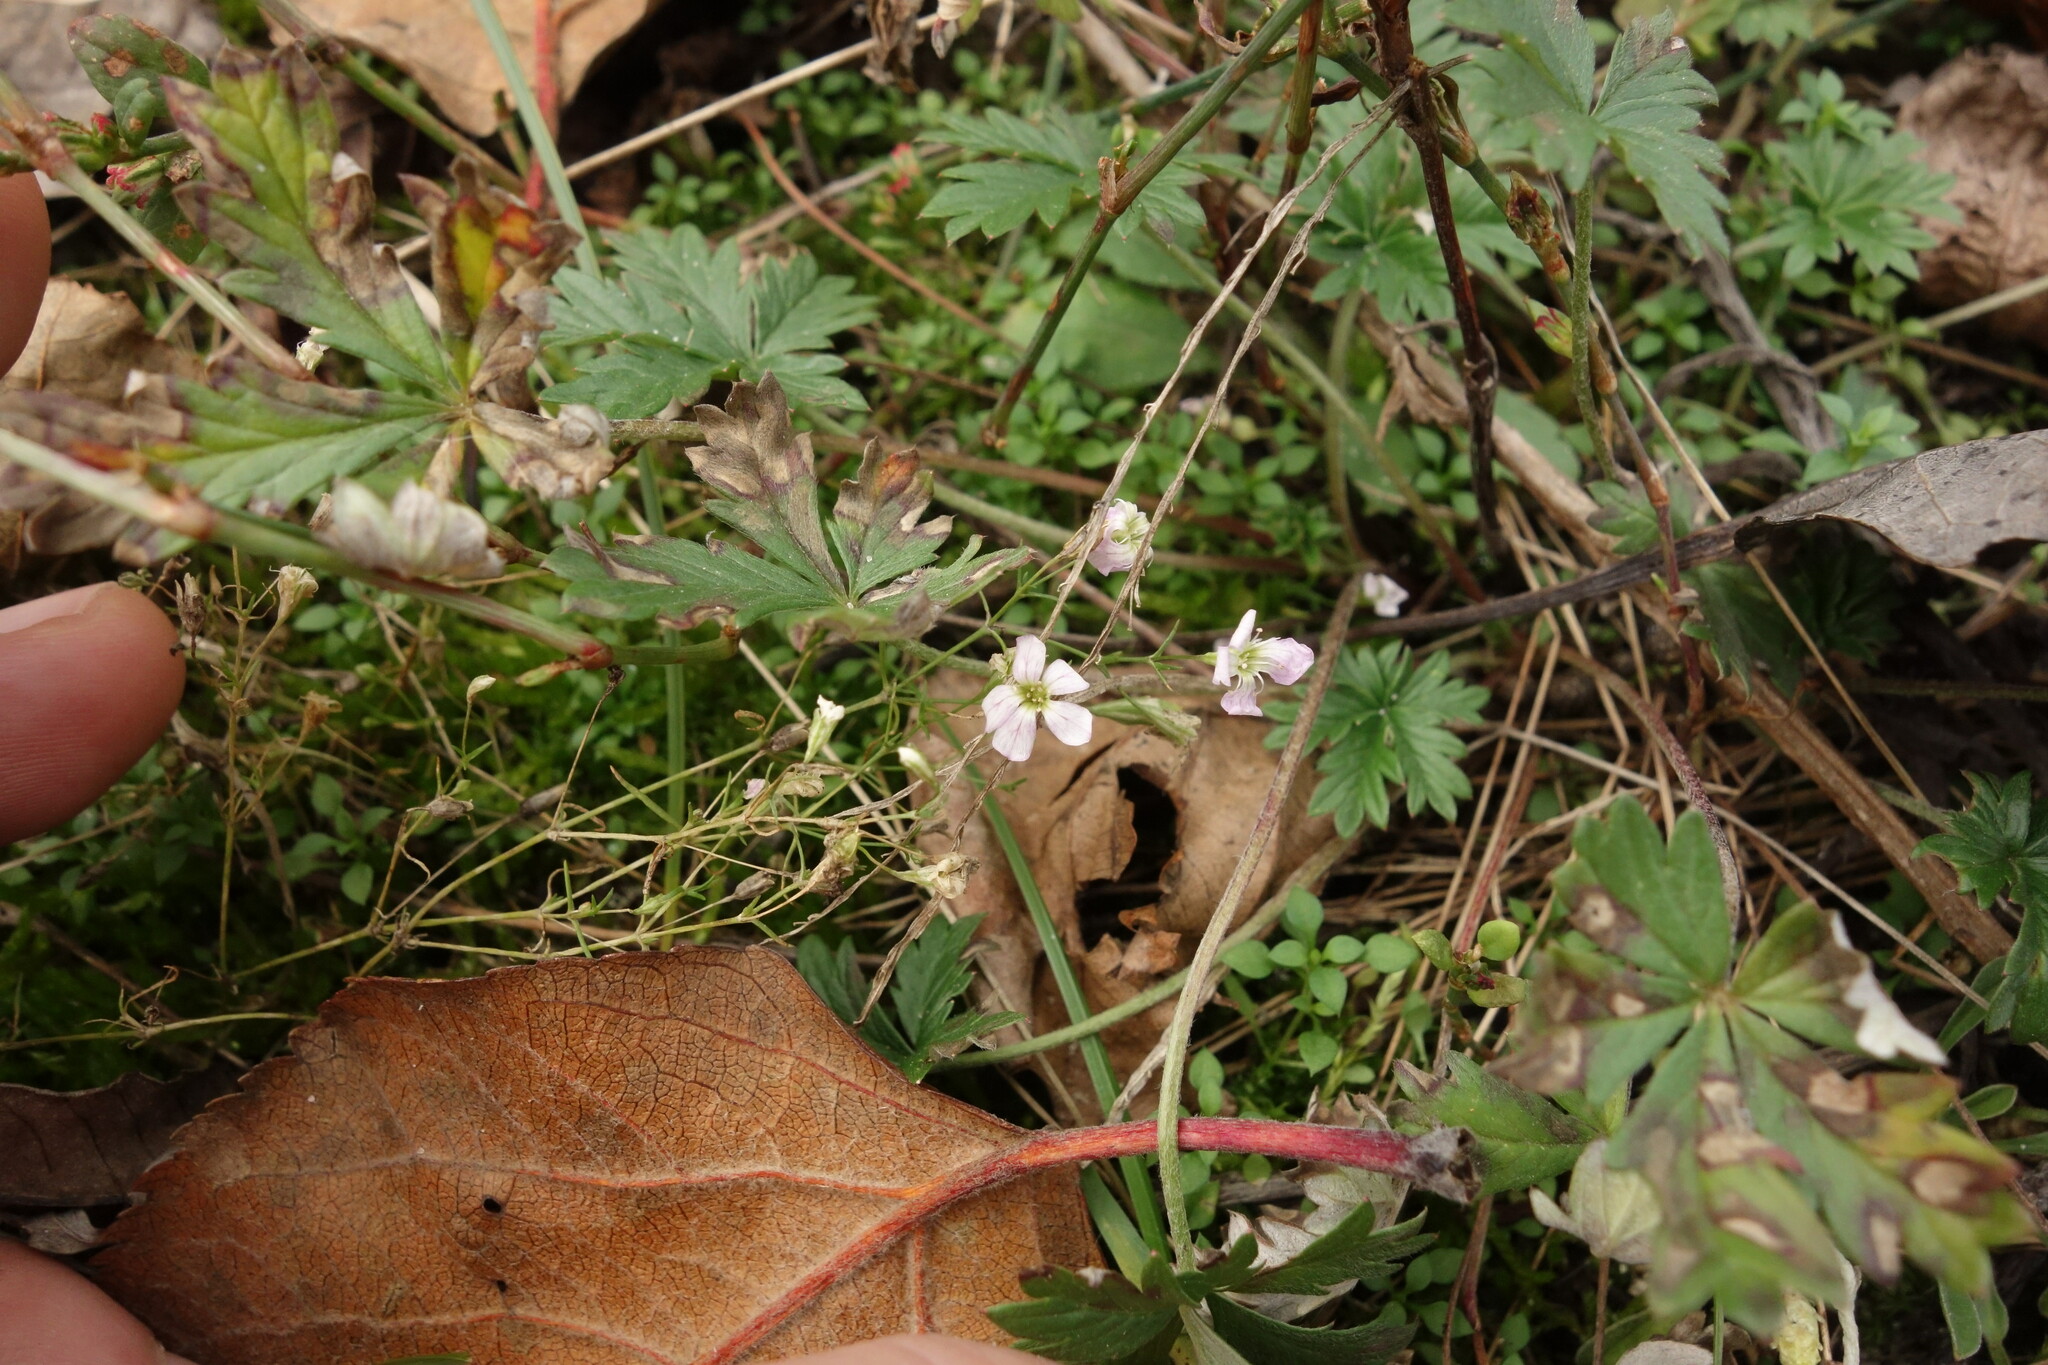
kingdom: Plantae
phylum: Tracheophyta
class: Magnoliopsida
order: Caryophyllales
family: Caryophyllaceae
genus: Psammophiliella
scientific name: Psammophiliella muralis
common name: Cushion baby's-breath
